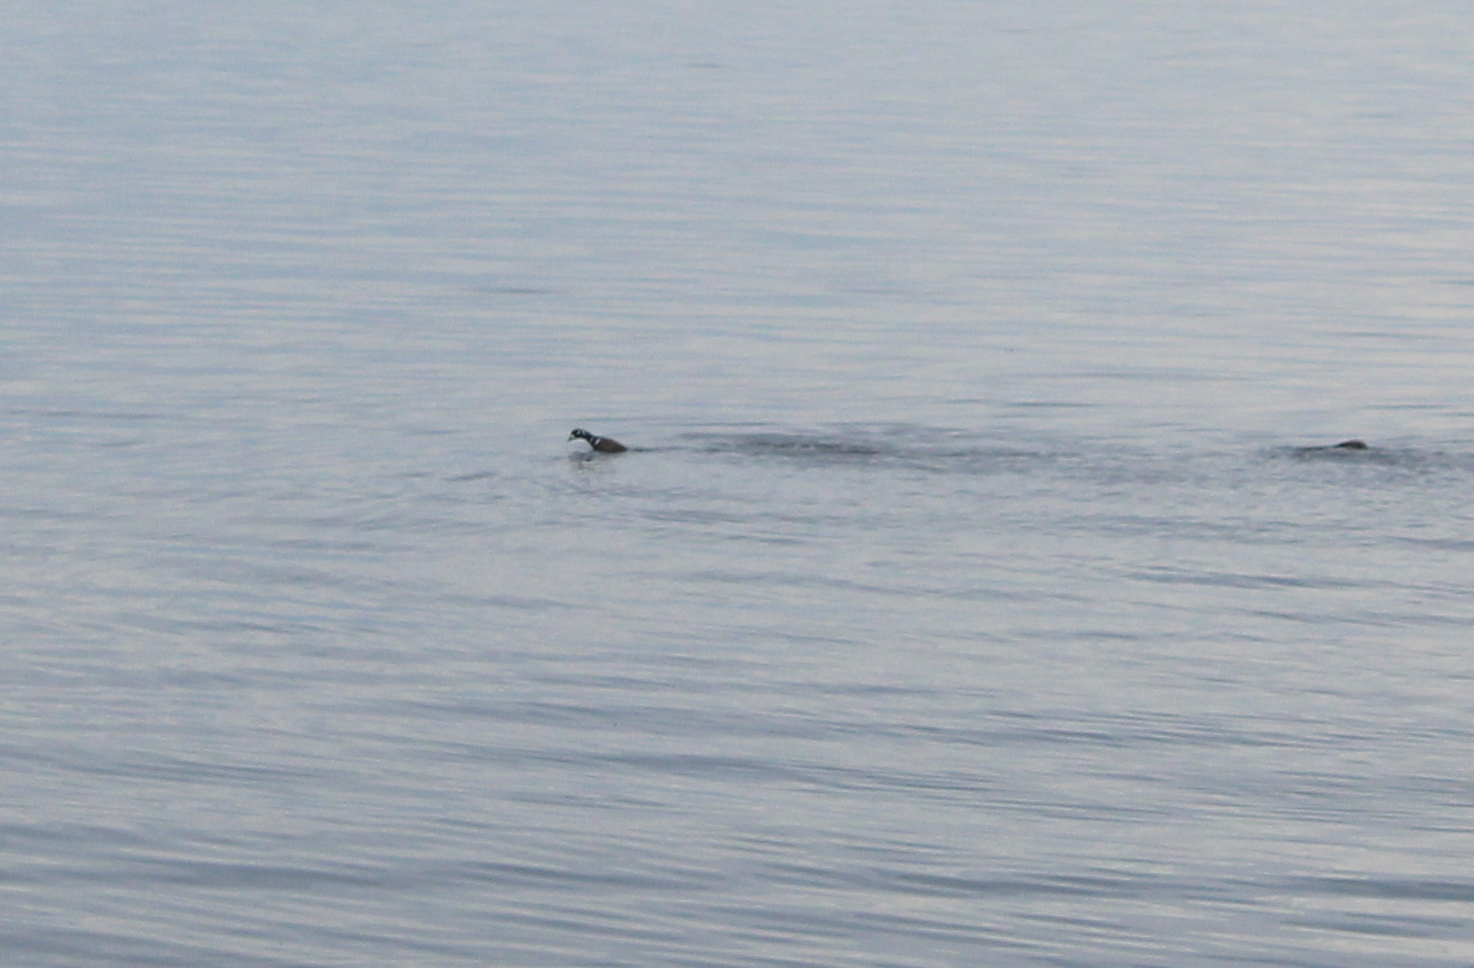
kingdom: Animalia
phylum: Chordata
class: Aves
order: Anseriformes
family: Anatidae
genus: Histrionicus
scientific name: Histrionicus histrionicus
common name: Harlequin duck
